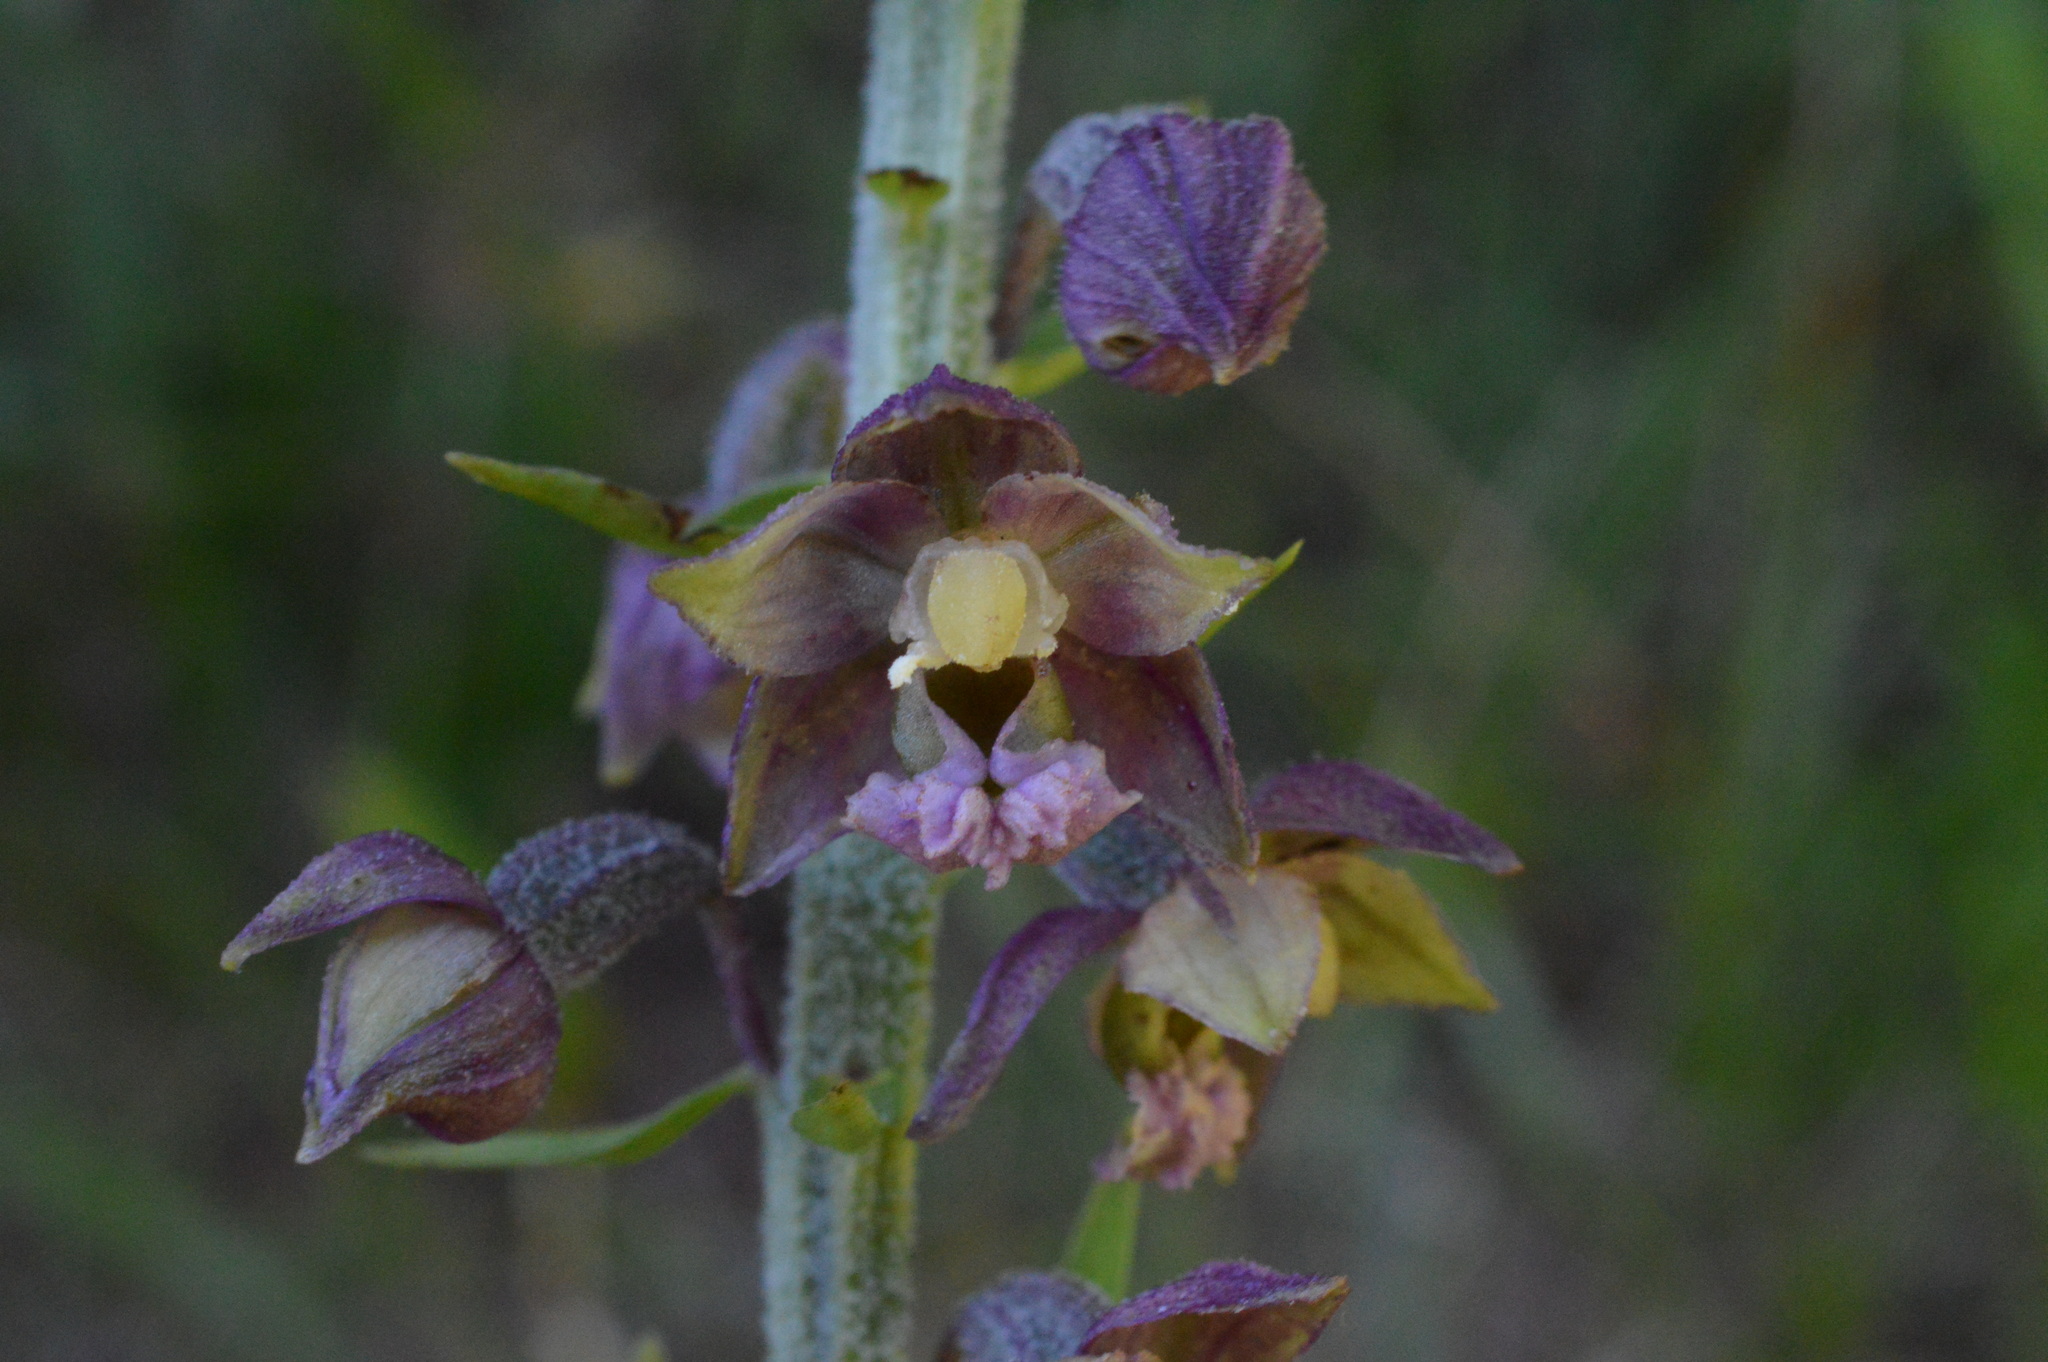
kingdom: Plantae
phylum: Tracheophyta
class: Liliopsida
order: Asparagales
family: Orchidaceae
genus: Epipactis
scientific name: Epipactis atrorubens
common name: Dark-red helleborine
